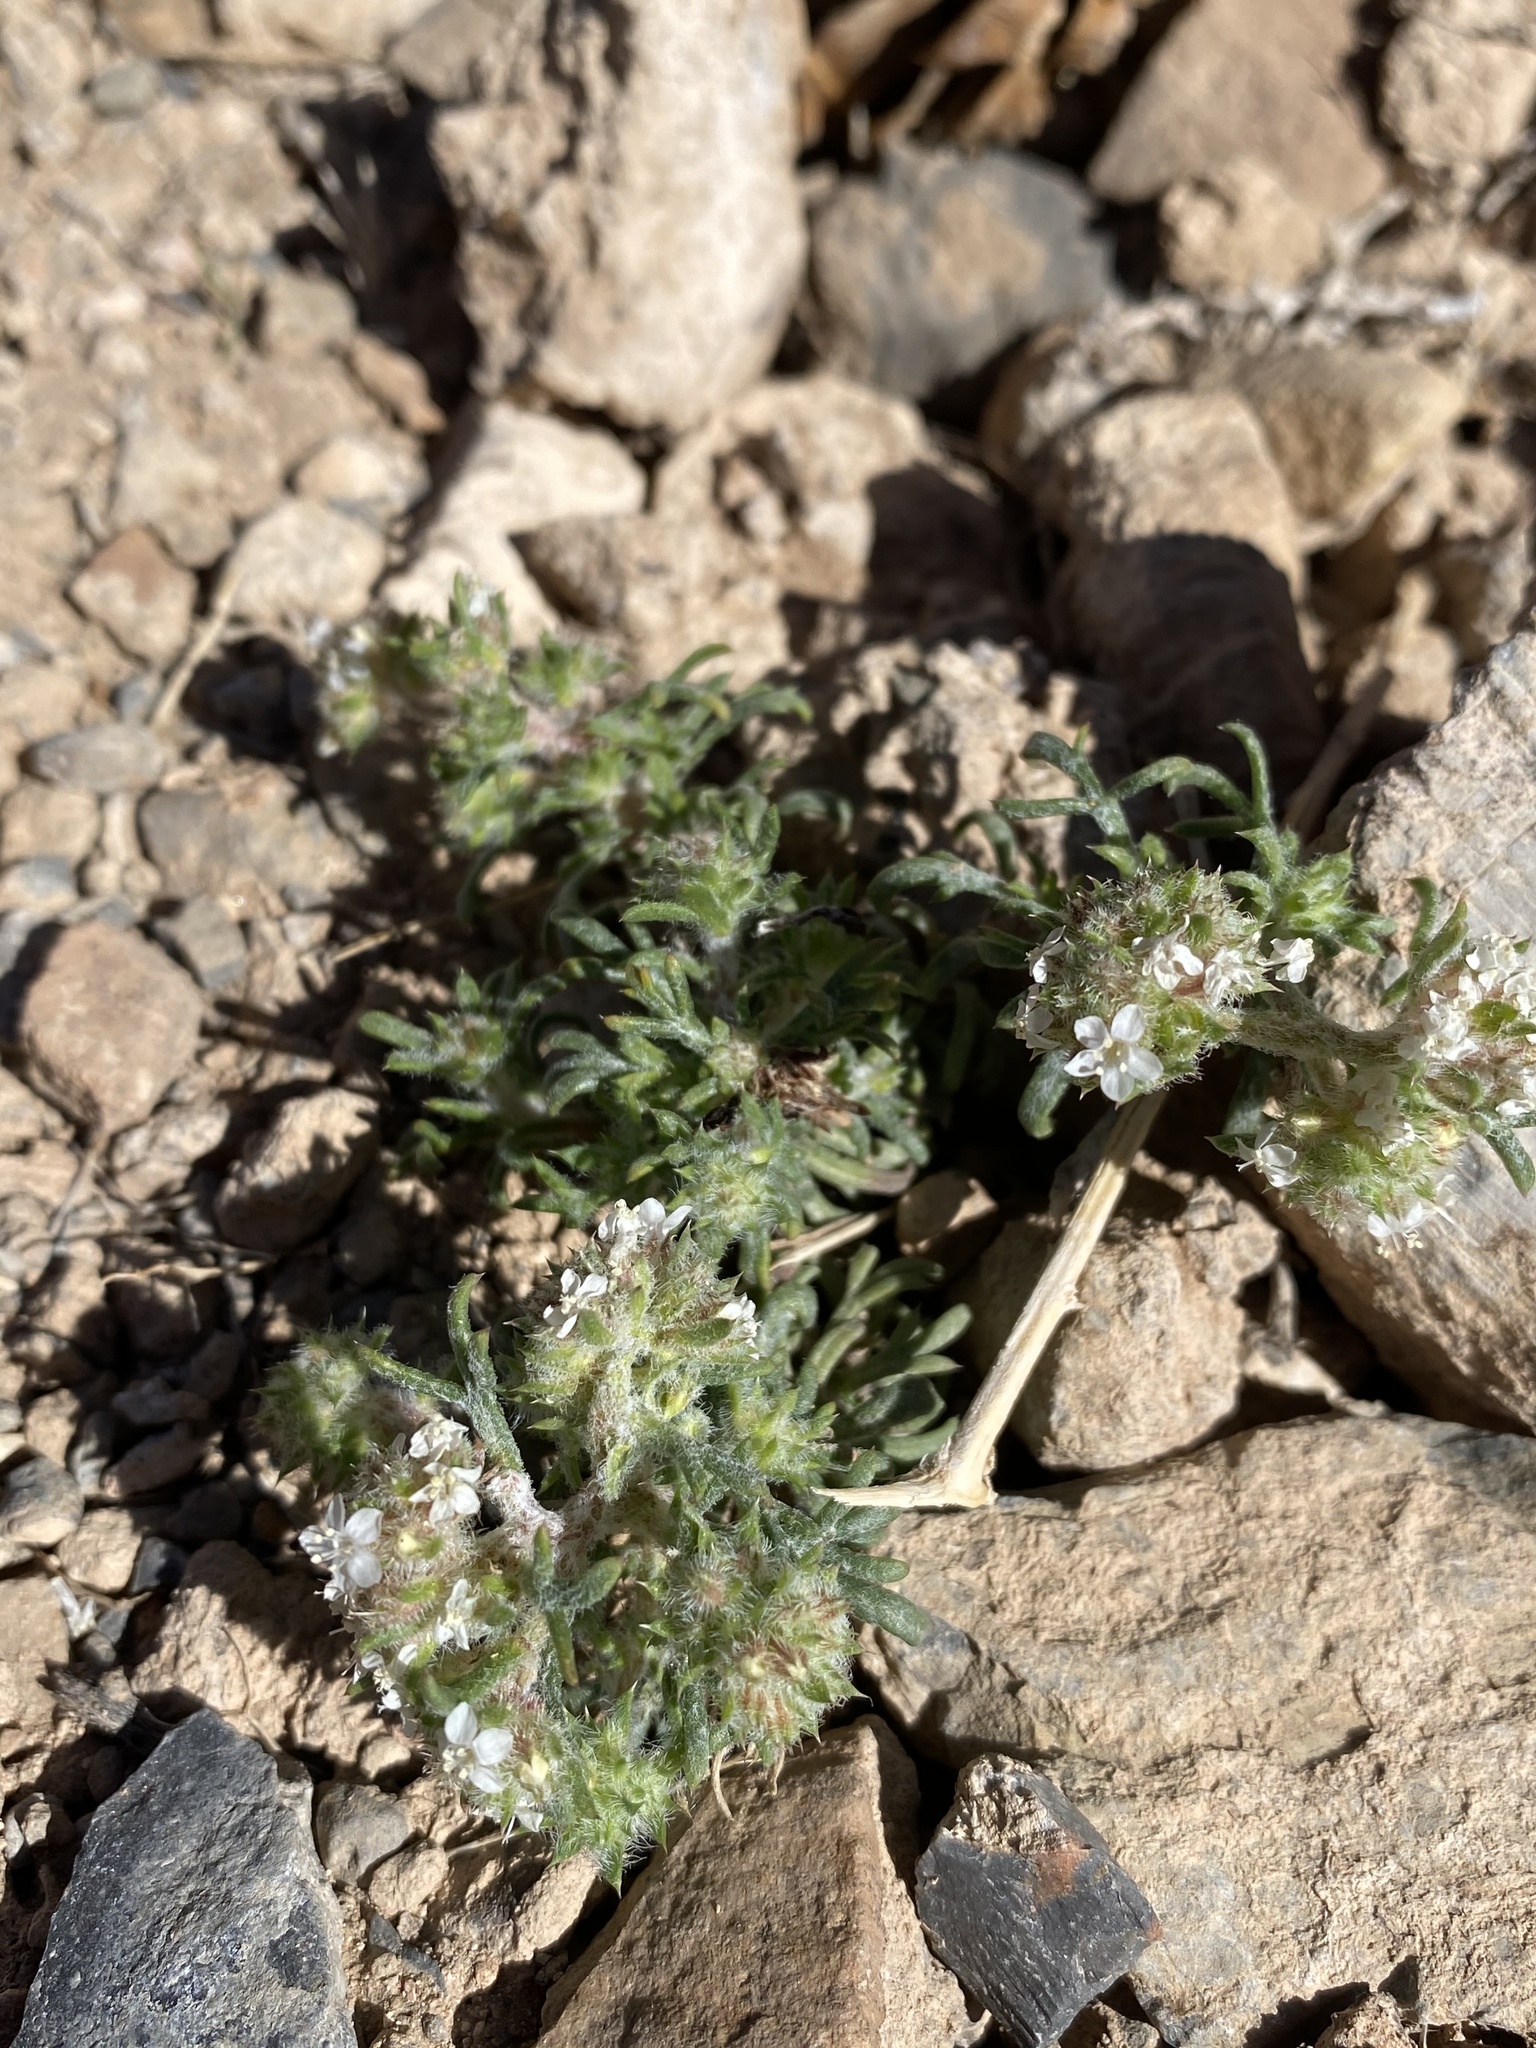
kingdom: Plantae
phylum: Tracheophyta
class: Magnoliopsida
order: Ericales
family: Polemoniaceae
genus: Ipomopsis
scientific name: Ipomopsis congesta
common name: Ball-head gilia
